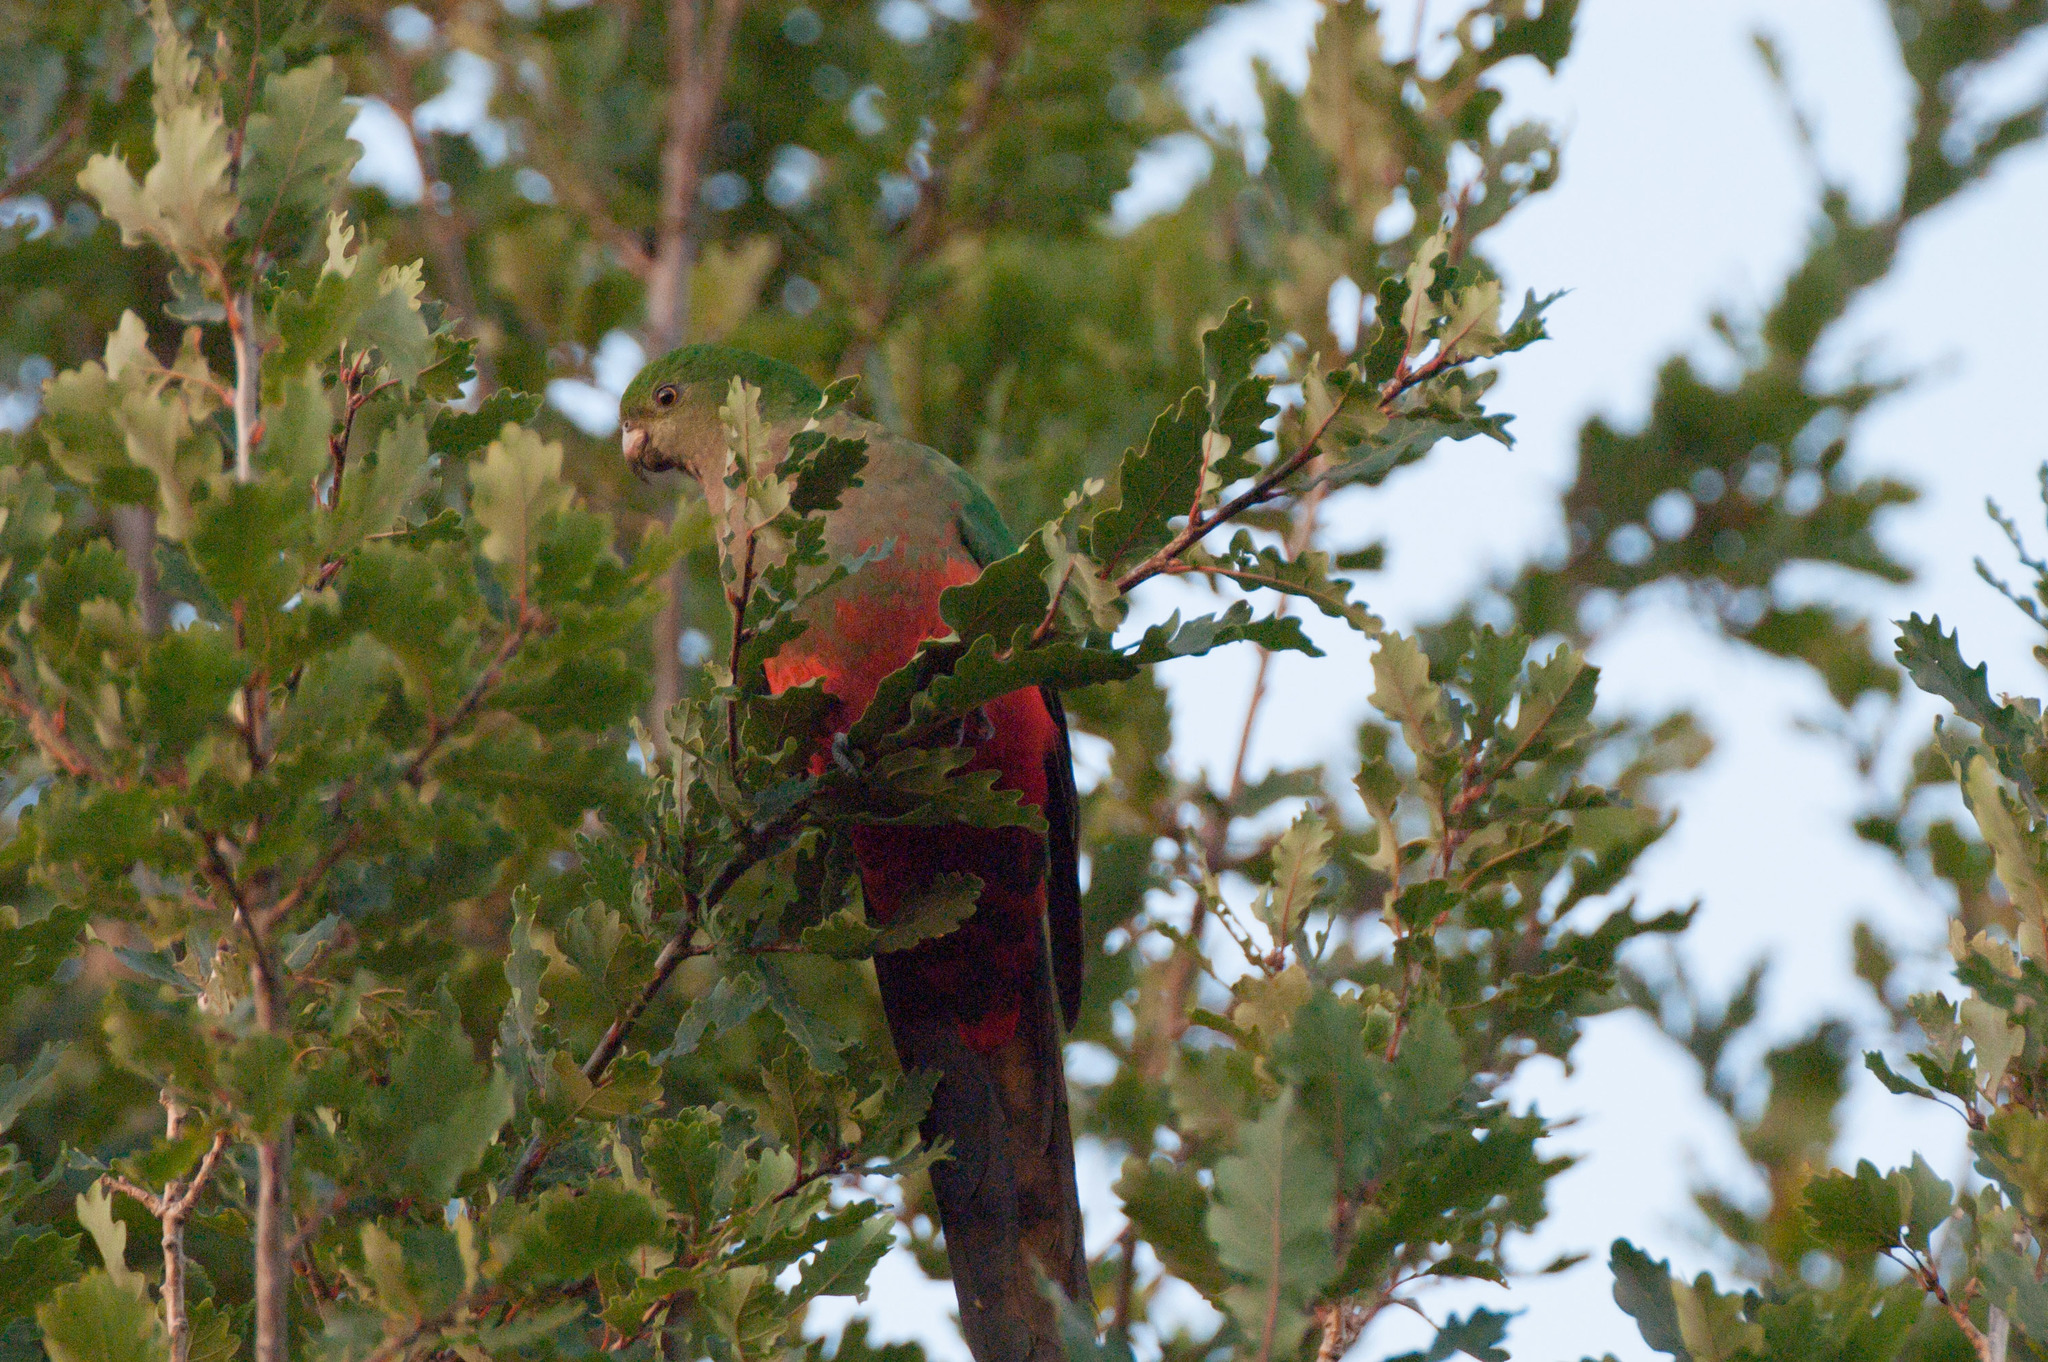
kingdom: Animalia
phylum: Chordata
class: Aves
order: Psittaciformes
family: Psittacidae
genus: Alisterus
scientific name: Alisterus scapularis
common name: Australian king parrot
